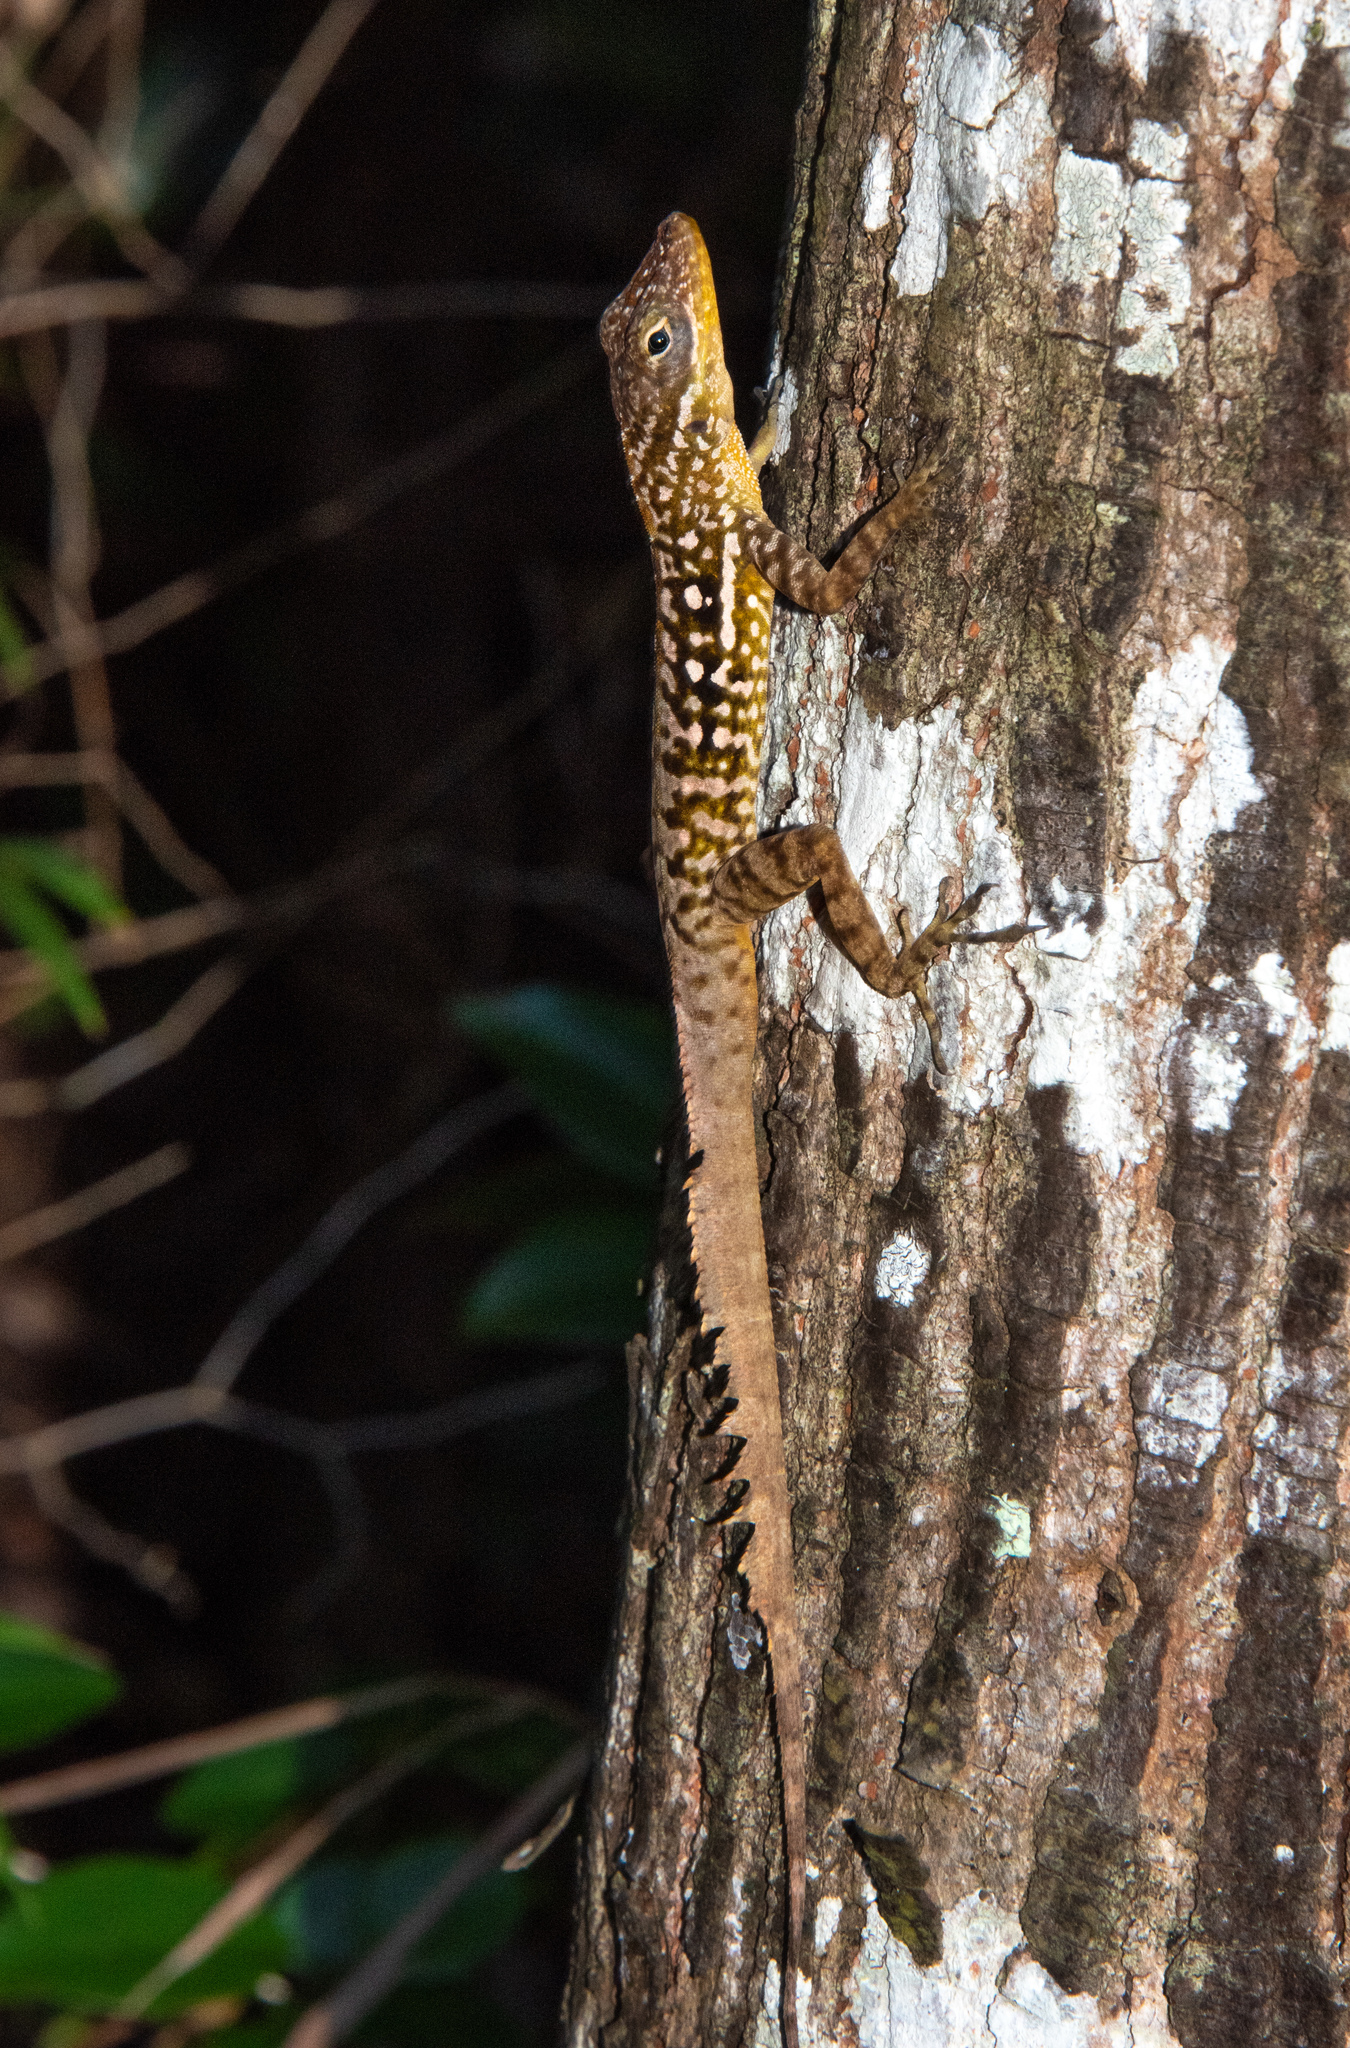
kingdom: Animalia
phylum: Chordata
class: Squamata
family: Dactyloidae
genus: Anolis
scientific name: Anolis oculatus
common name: Dominica anole
